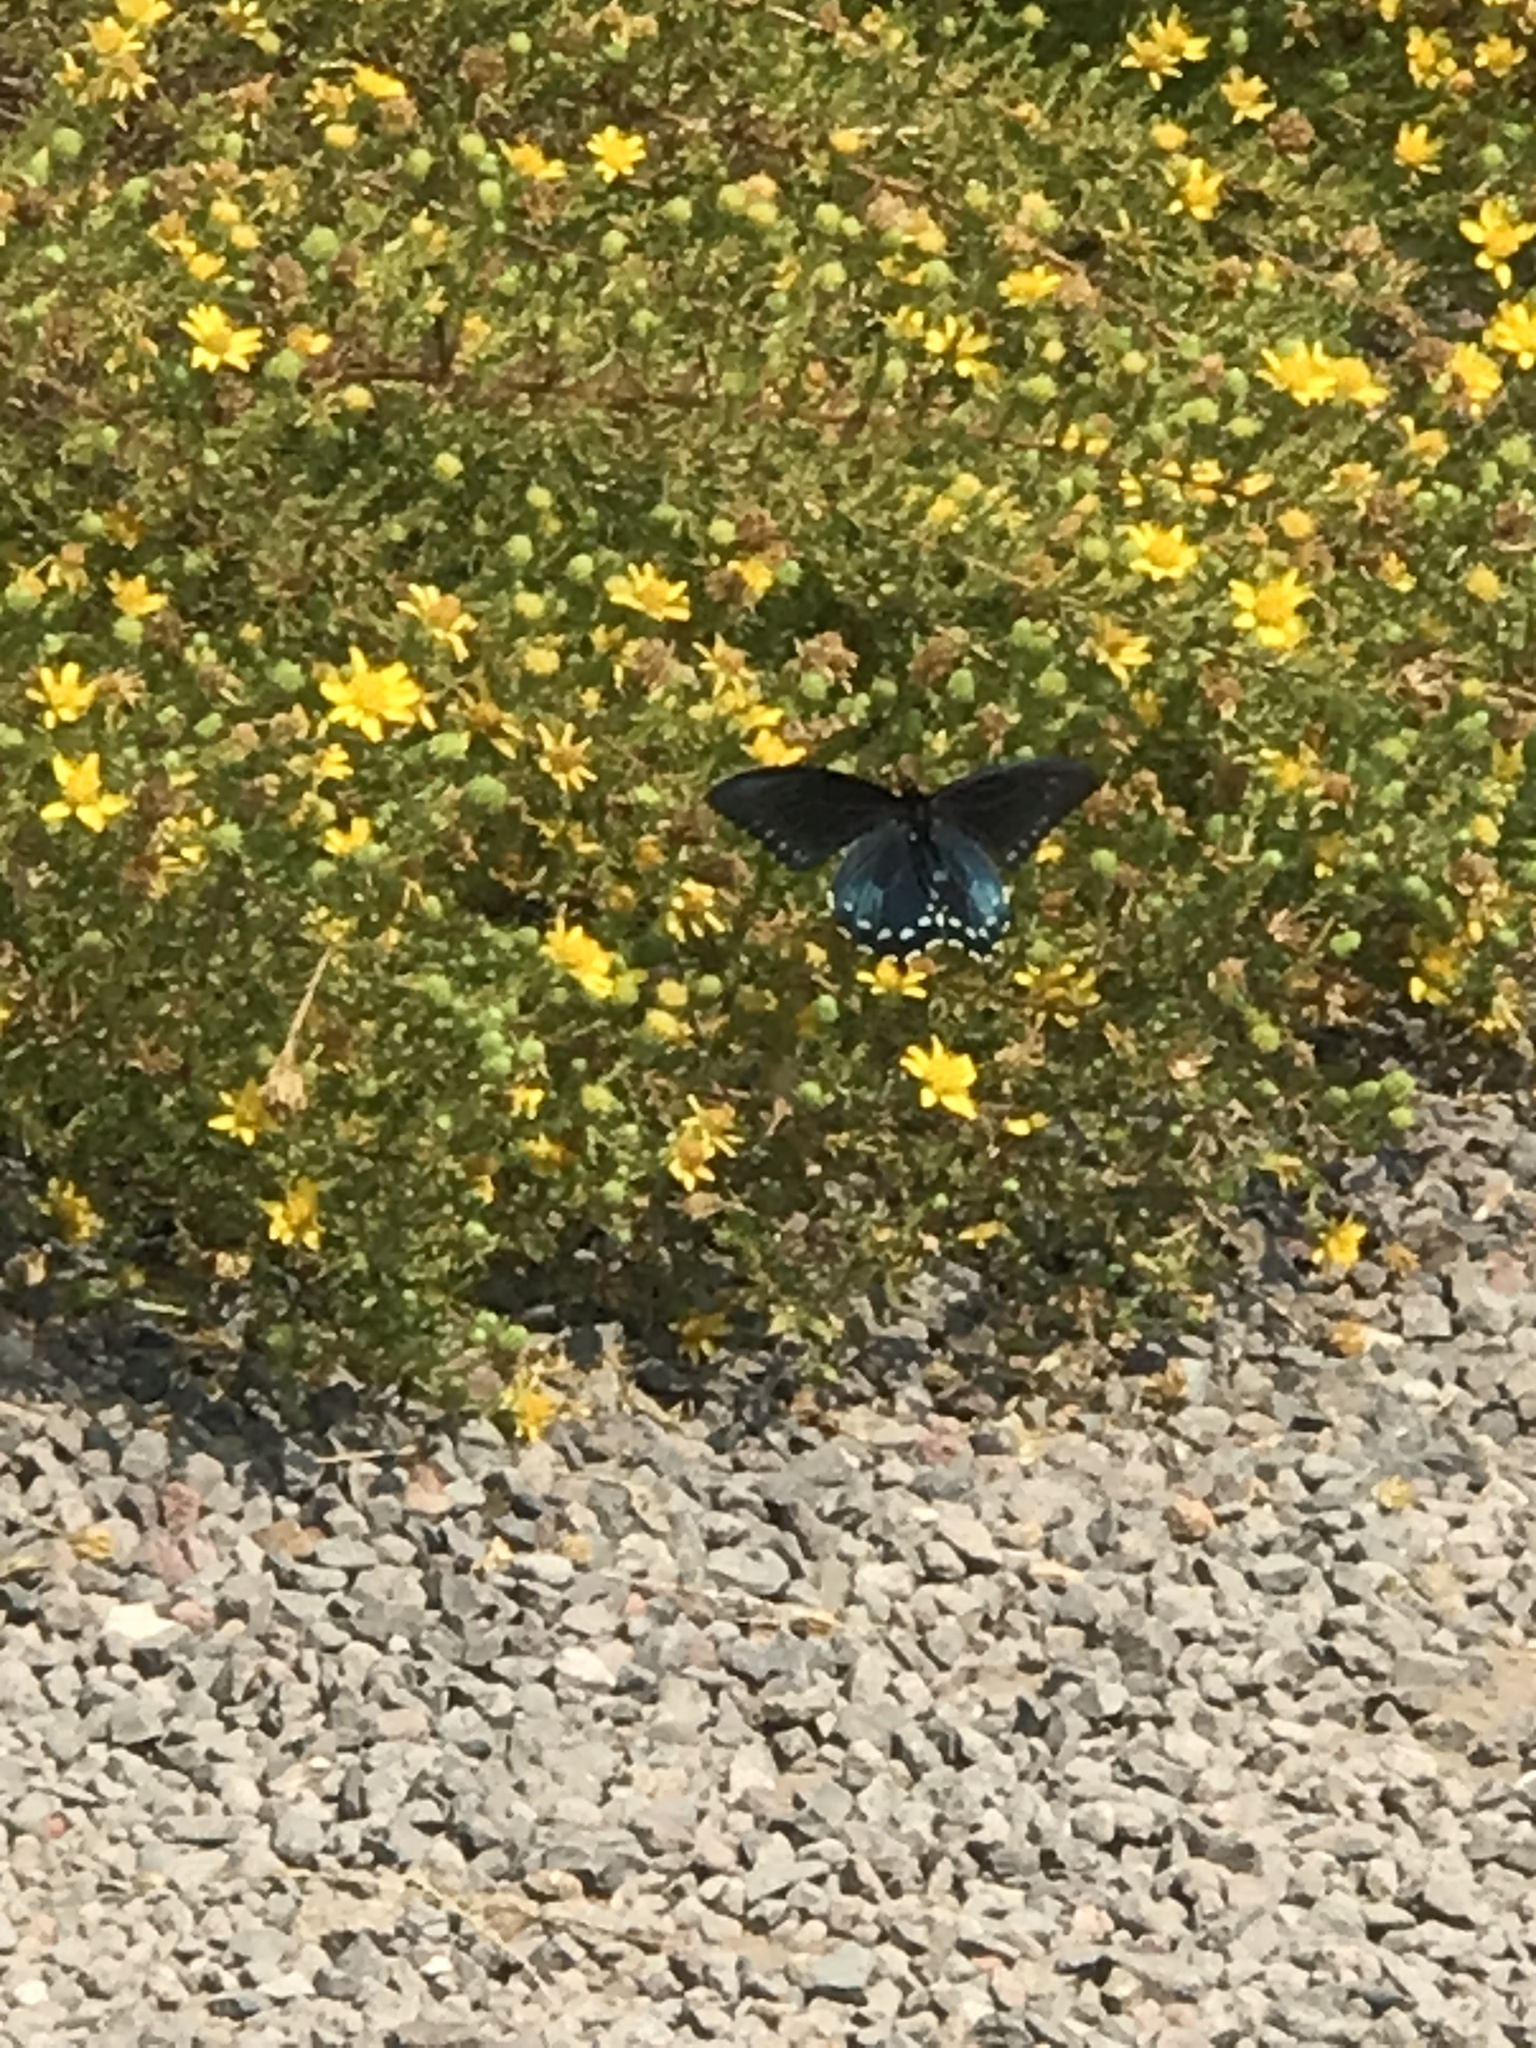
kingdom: Animalia
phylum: Arthropoda
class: Insecta
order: Lepidoptera
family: Papilionidae
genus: Battus
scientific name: Battus philenor
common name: Pipevine swallowtail
